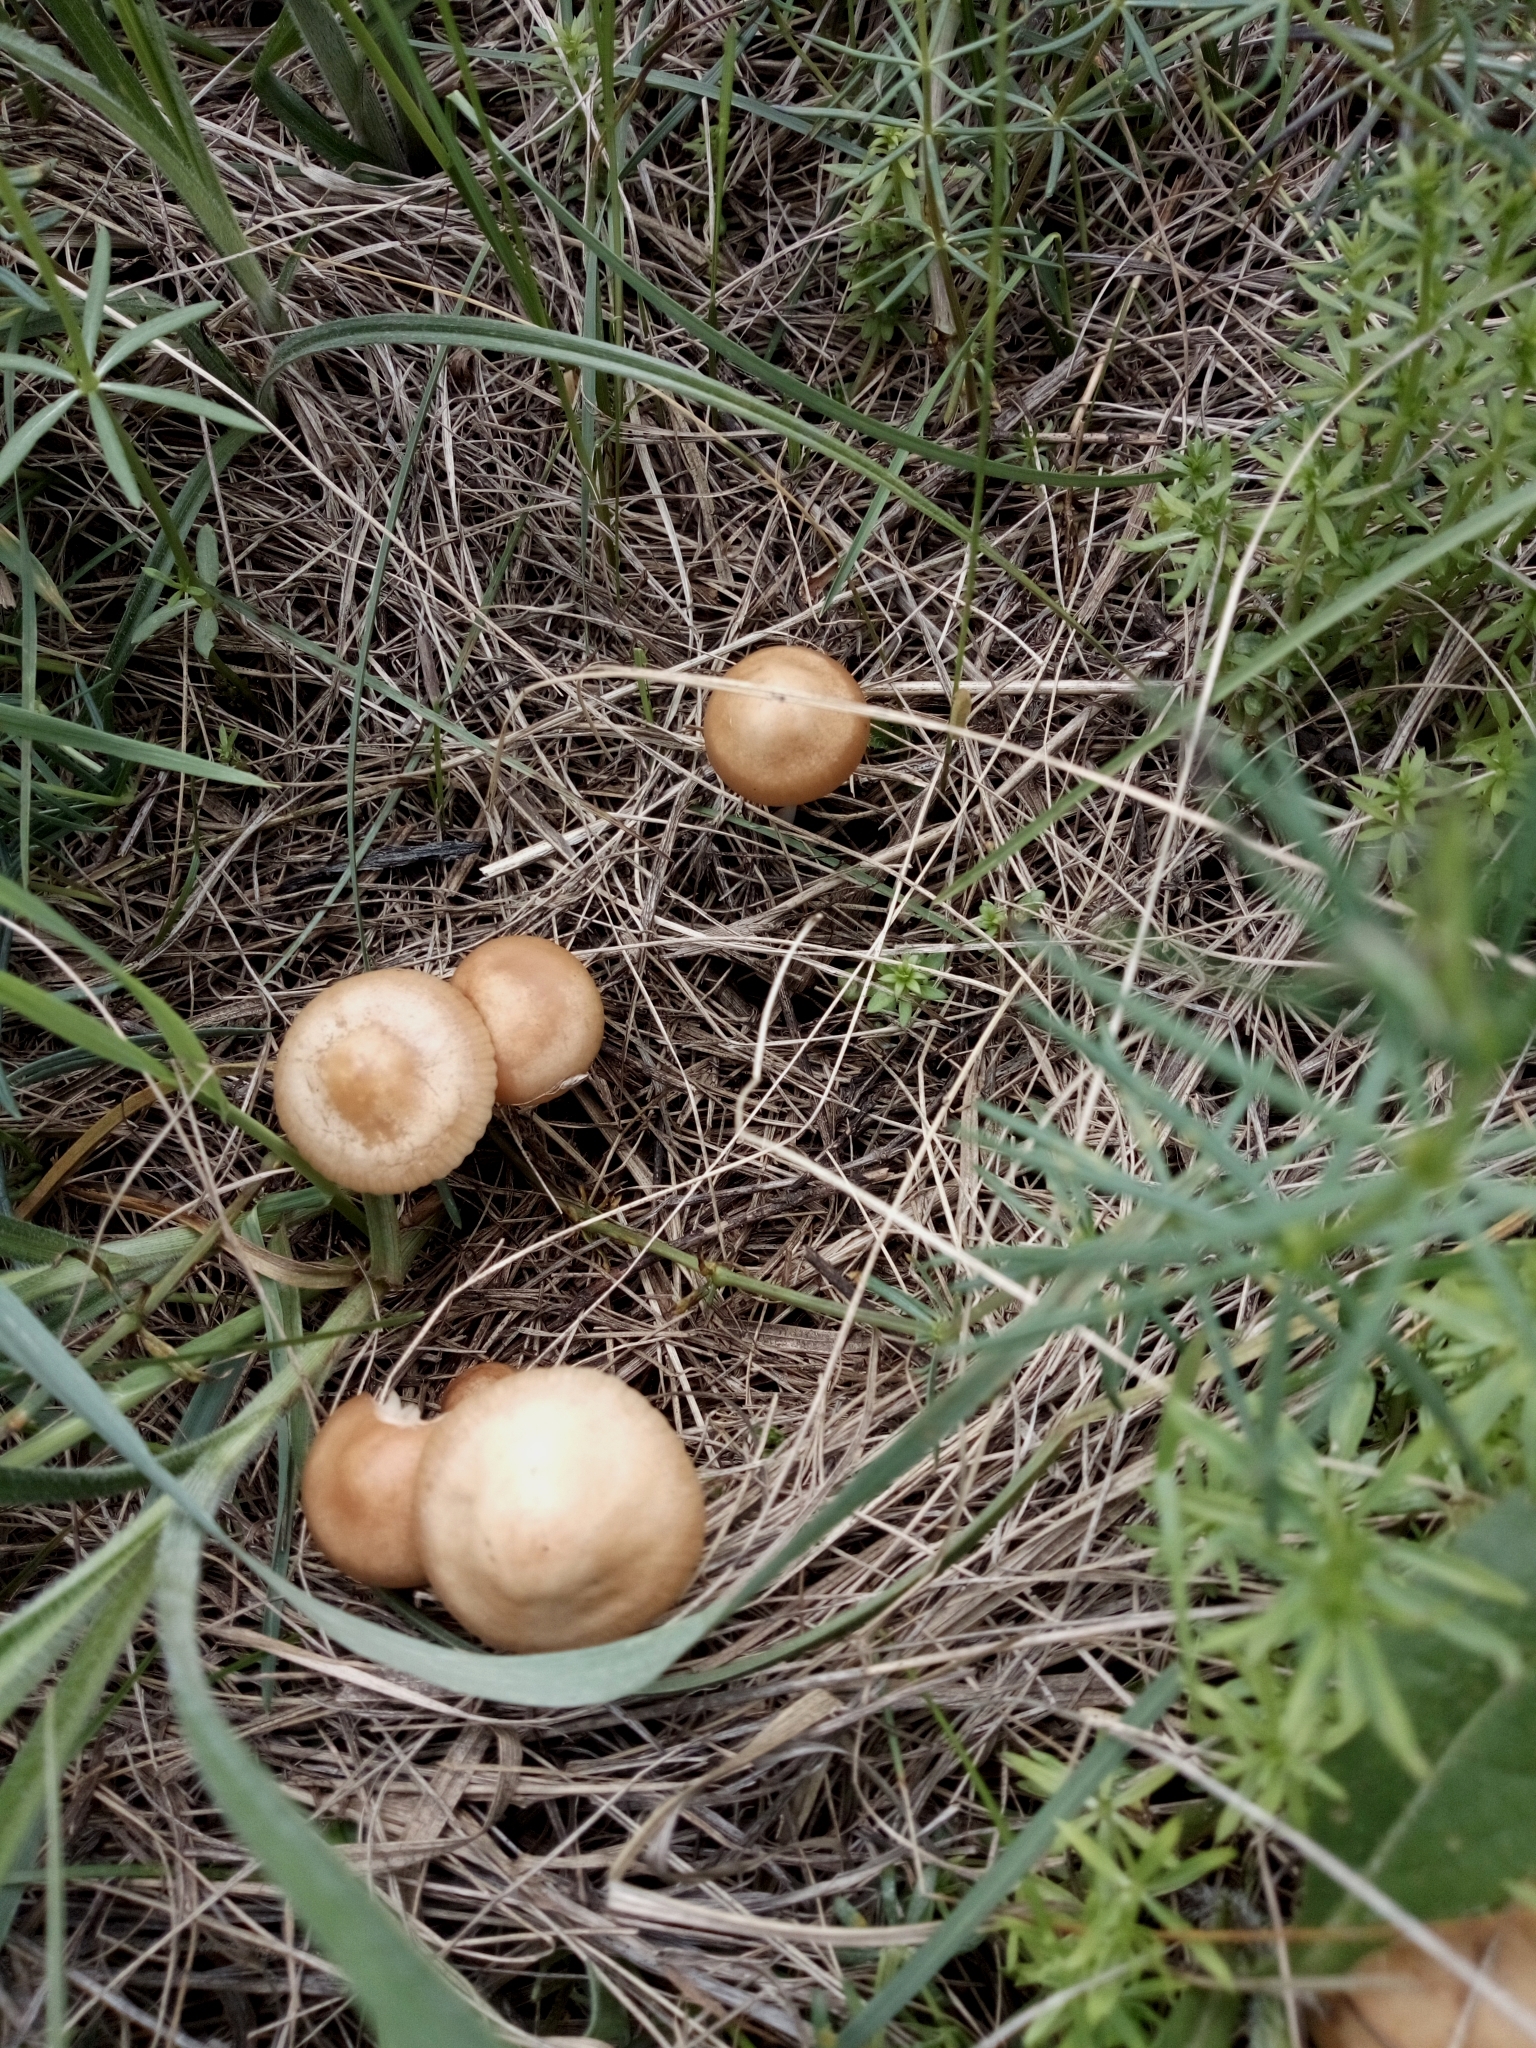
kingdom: Fungi
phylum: Basidiomycota
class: Agaricomycetes
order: Agaricales
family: Marasmiaceae
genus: Marasmius
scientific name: Marasmius oreades
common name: Fairy ring champignon
